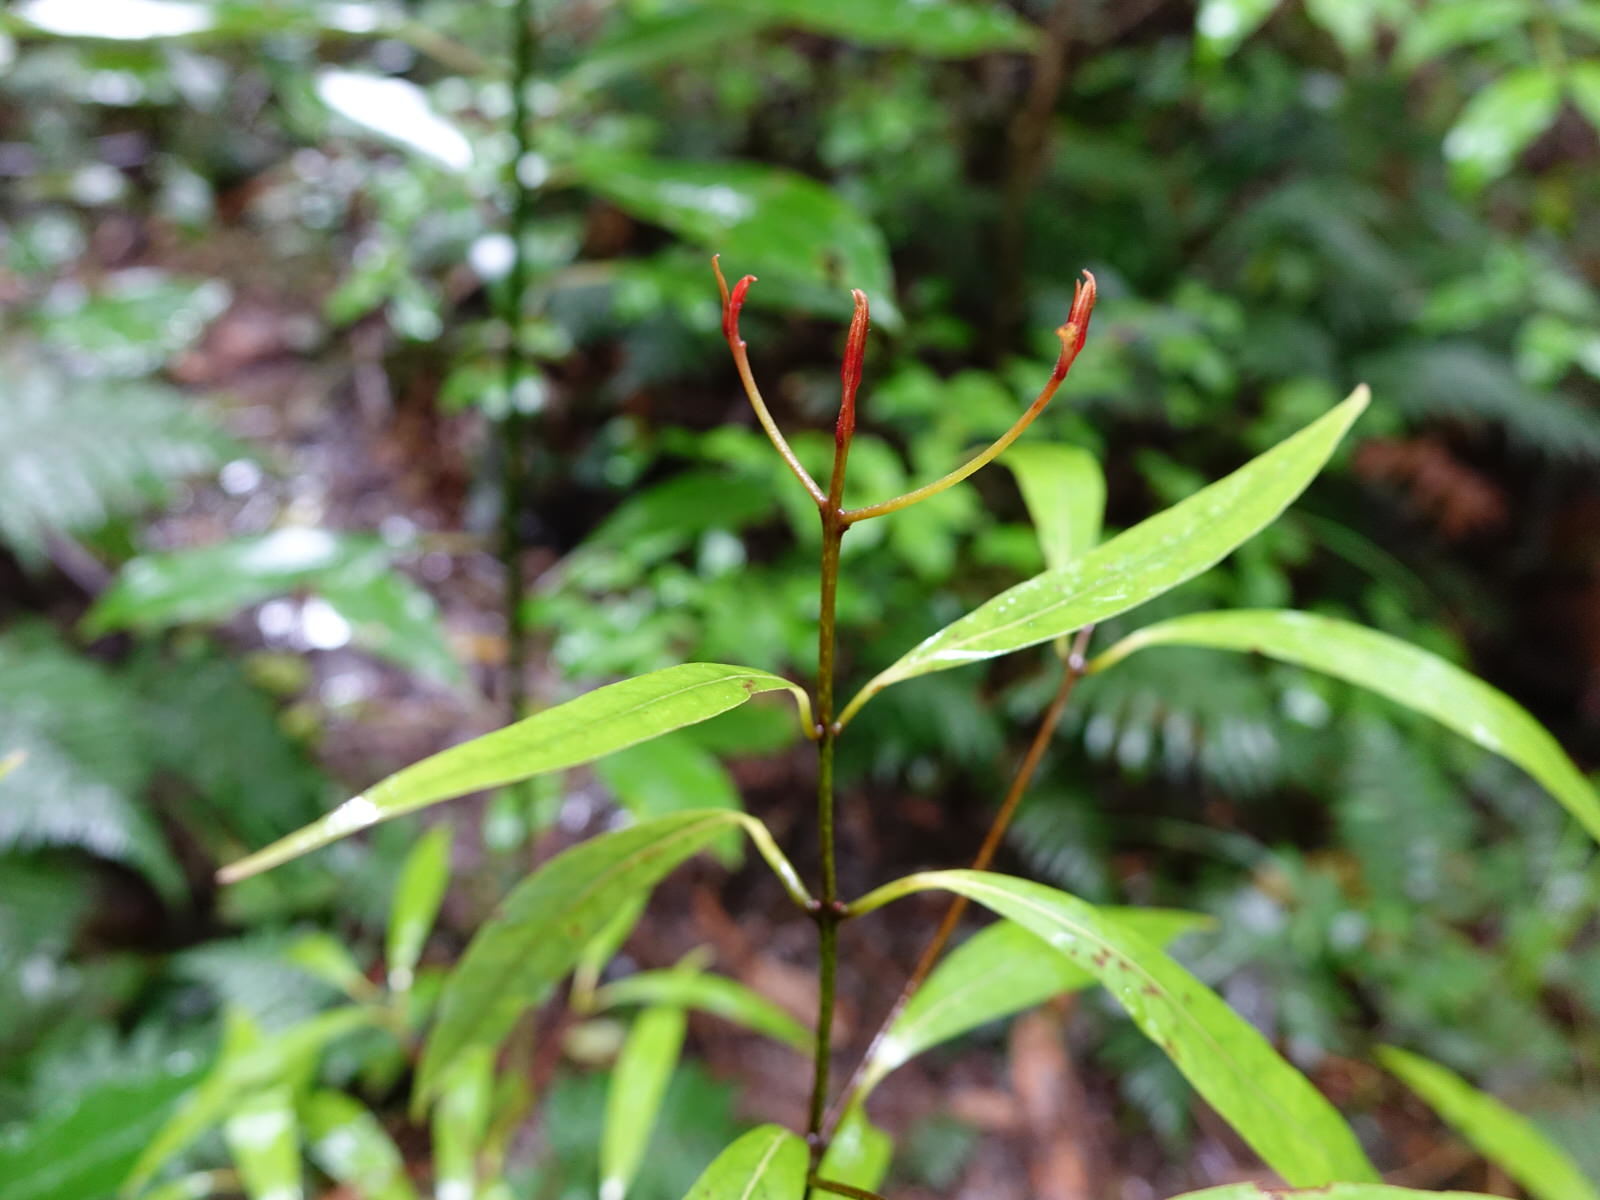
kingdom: Plantae
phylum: Tracheophyta
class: Magnoliopsida
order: Laurales
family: Lauraceae
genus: Beilschmiedia
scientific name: Beilschmiedia tawa
